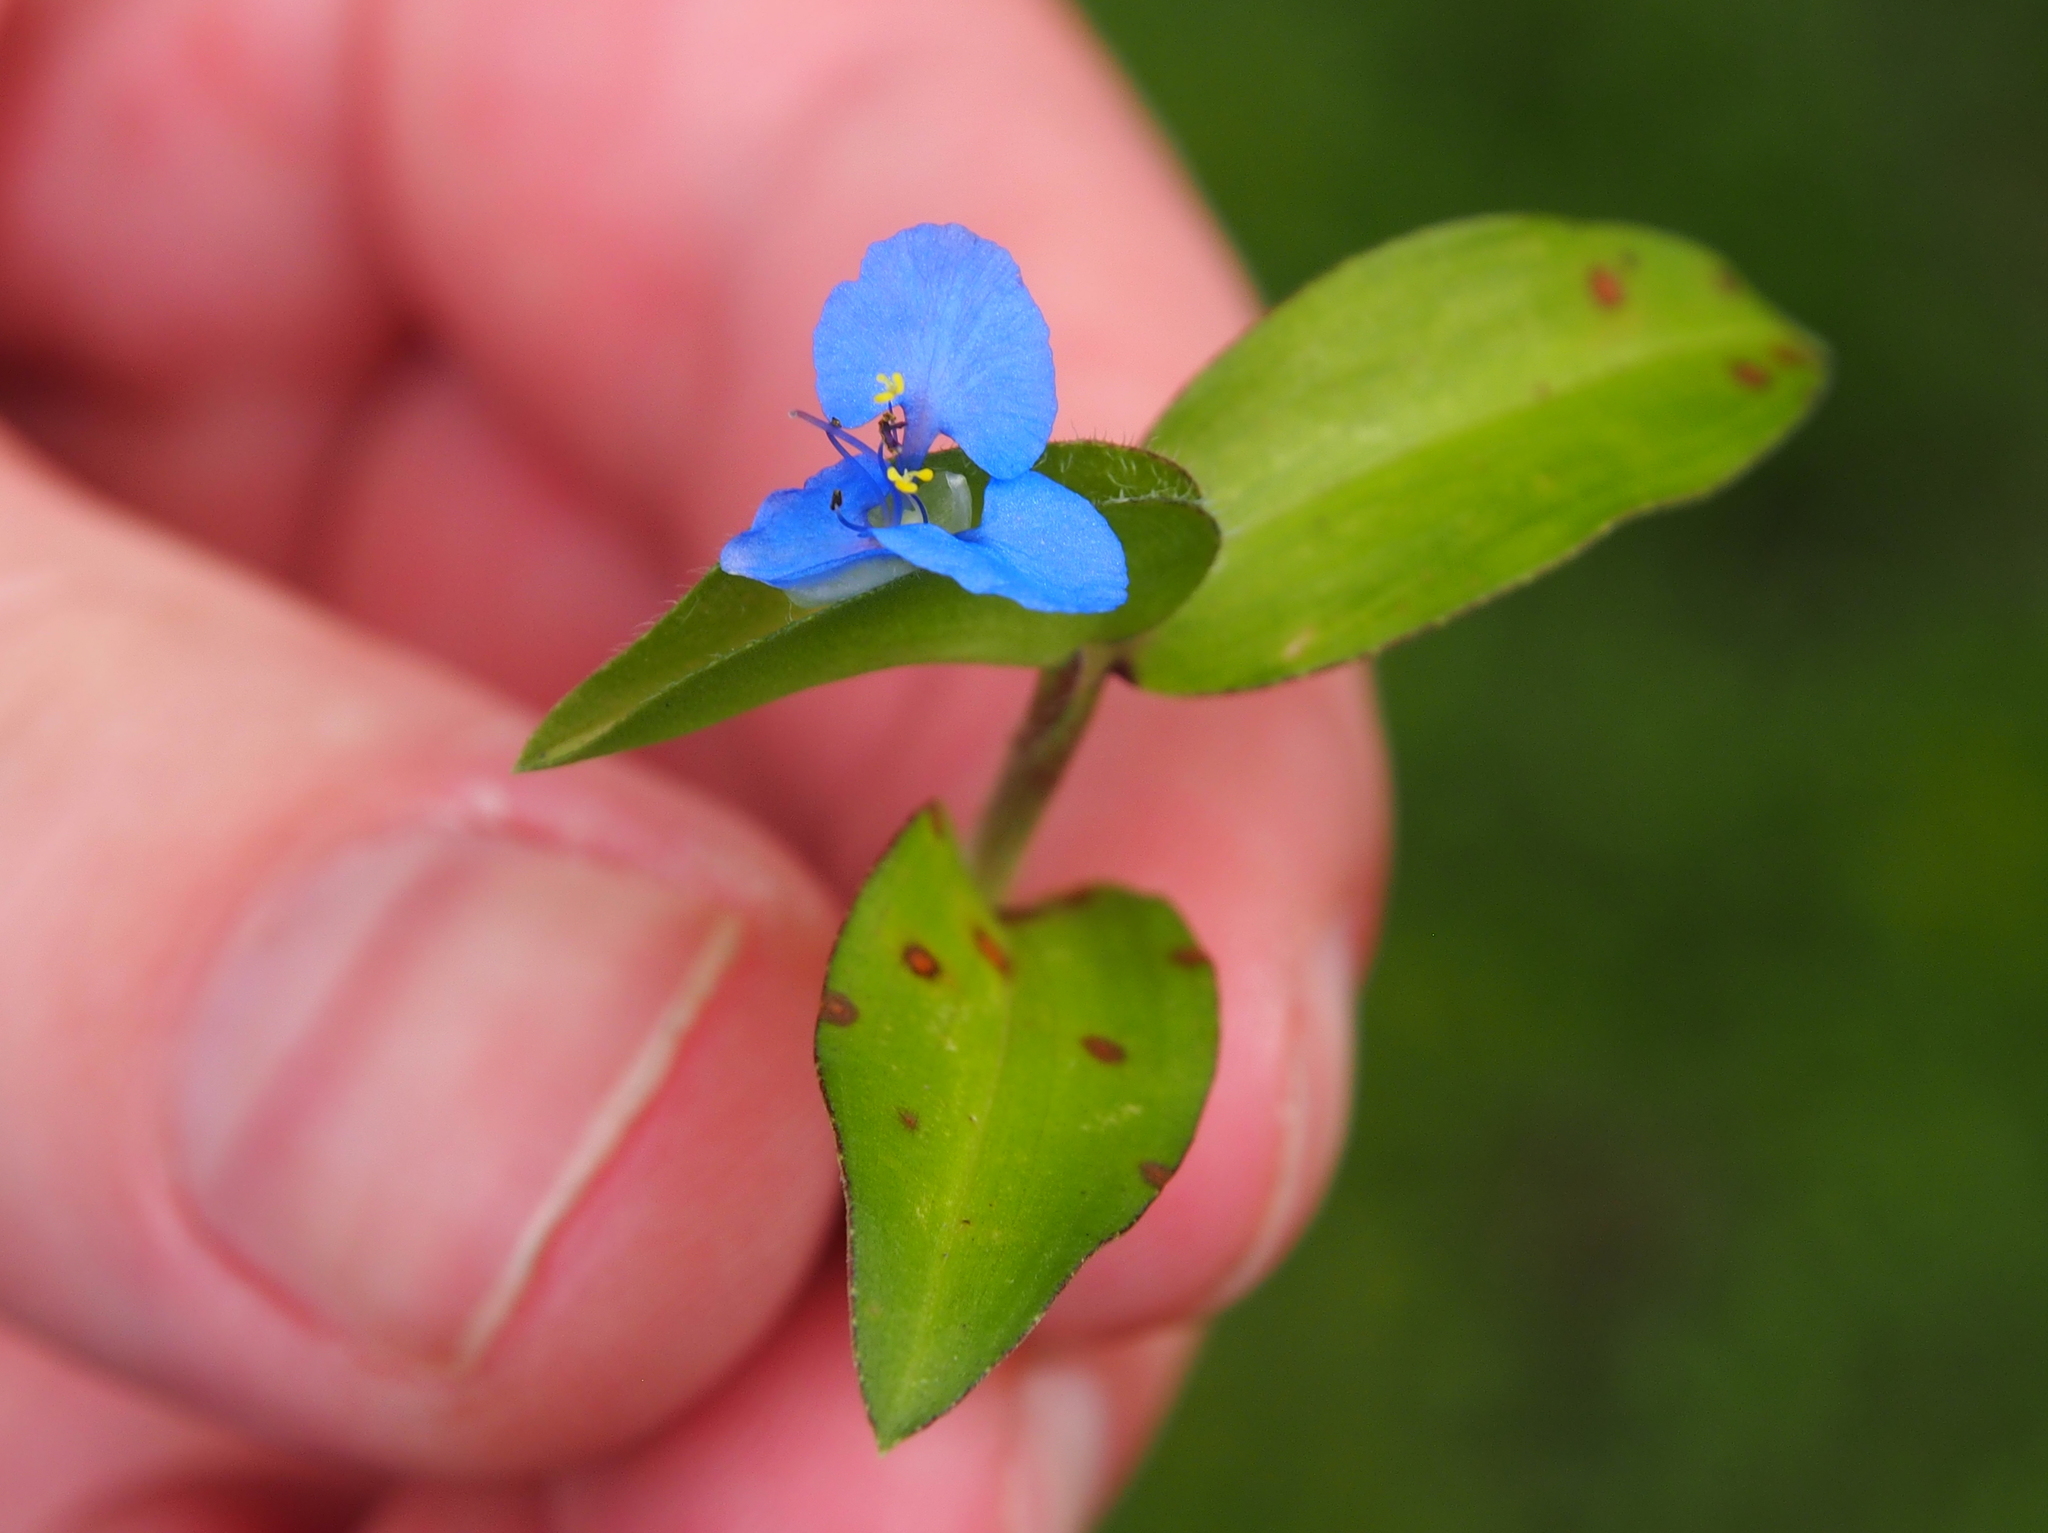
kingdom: Plantae
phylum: Tracheophyta
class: Liliopsida
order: Commelinales
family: Commelinaceae
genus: Commelina
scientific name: Commelina diffusa
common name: Climbing dayflower
